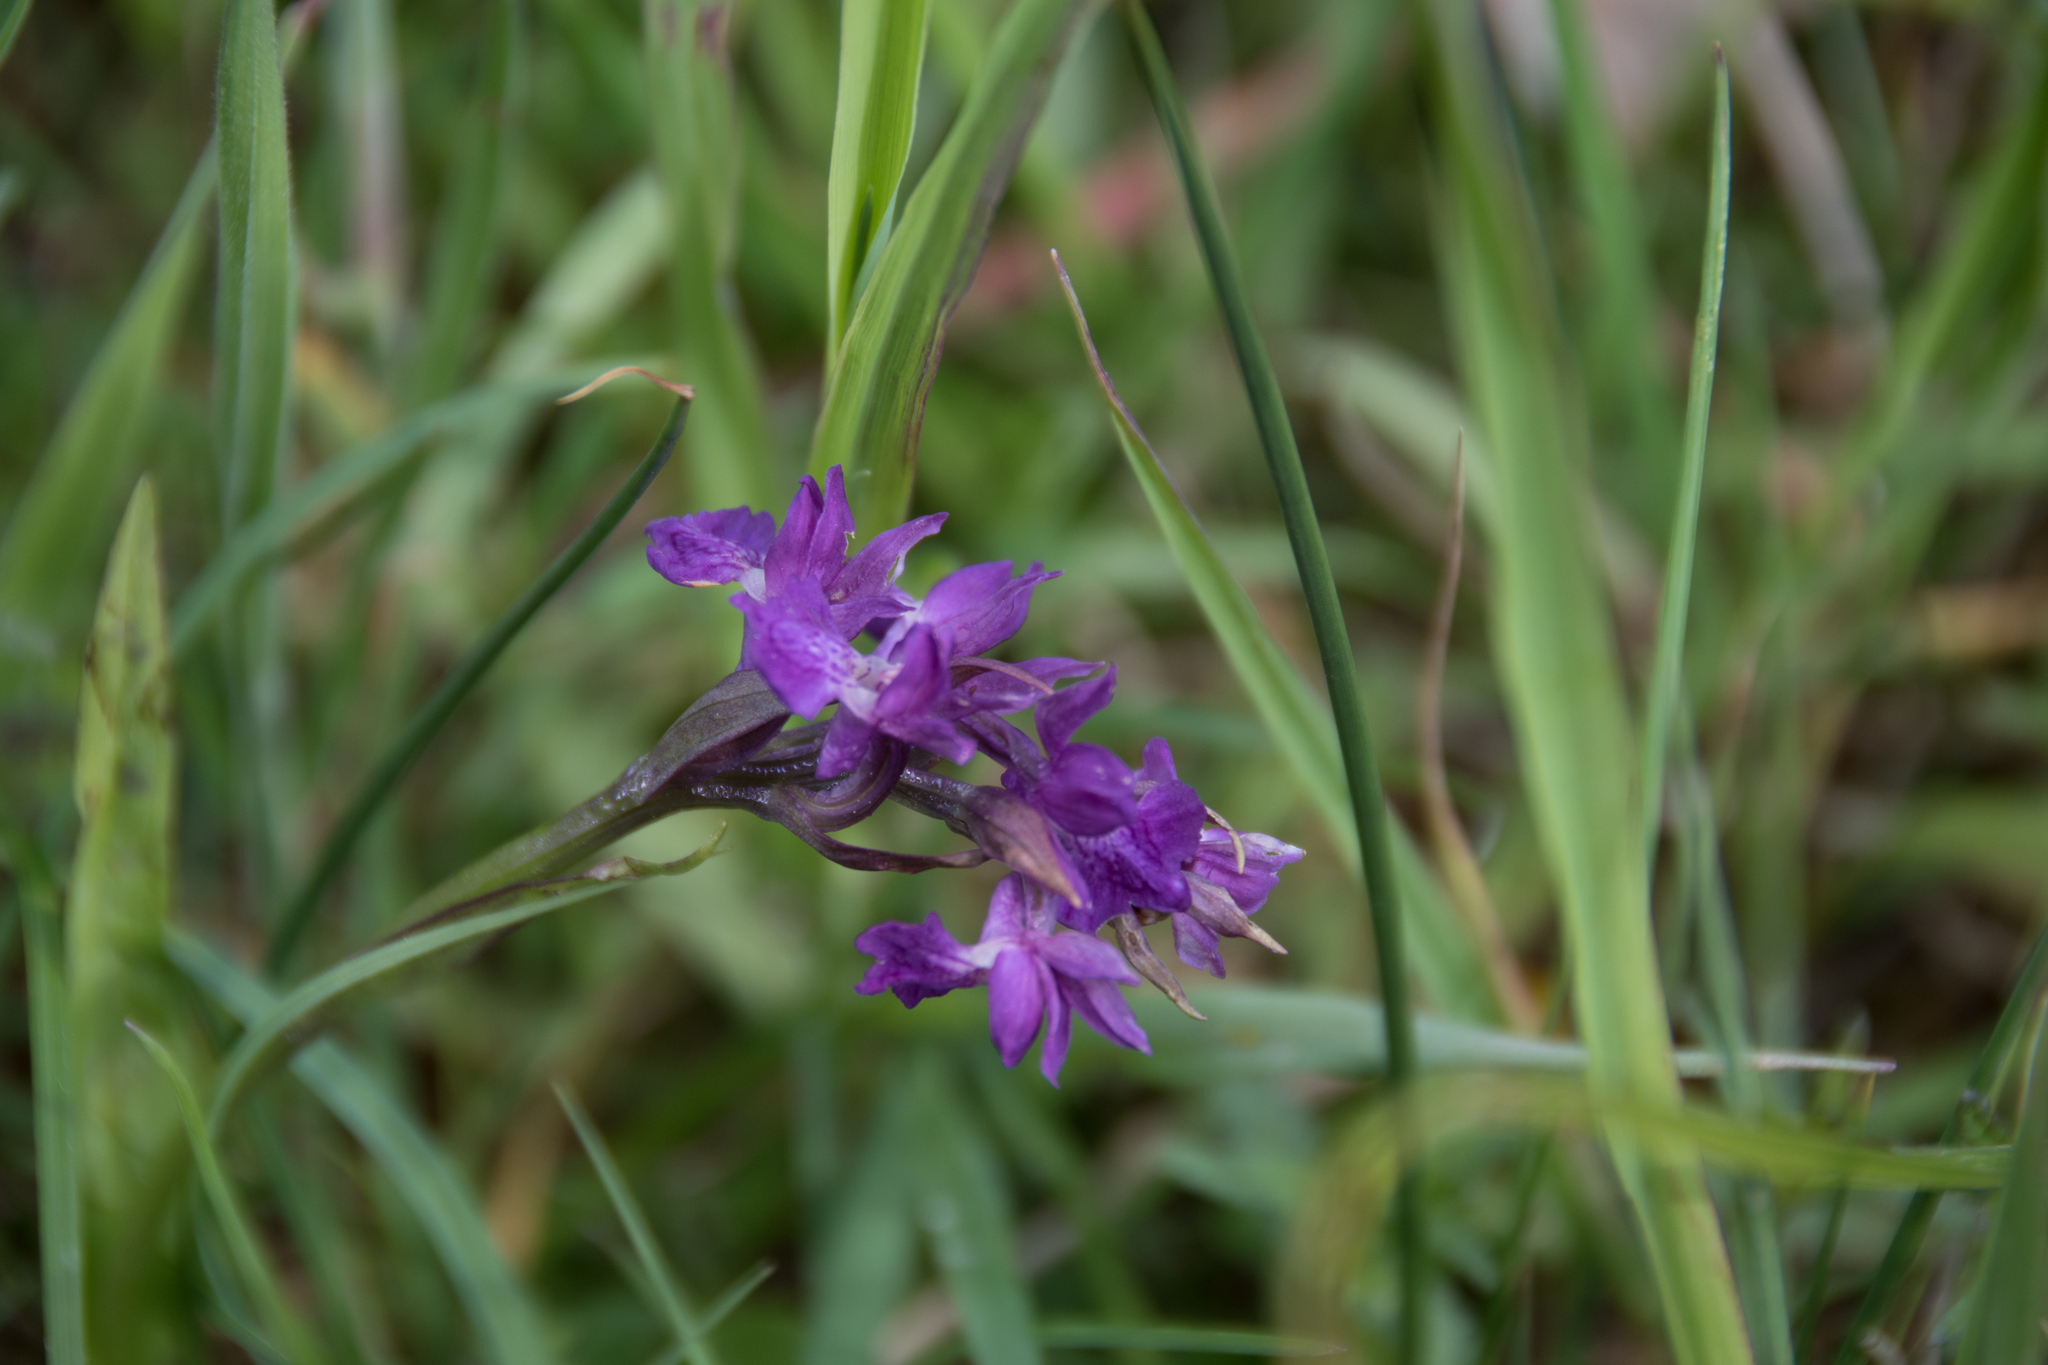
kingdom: Plantae
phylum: Tracheophyta
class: Liliopsida
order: Asparagales
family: Orchidaceae
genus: Dactylorhiza
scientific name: Dactylorhiza majalis
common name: Marsh orchid
